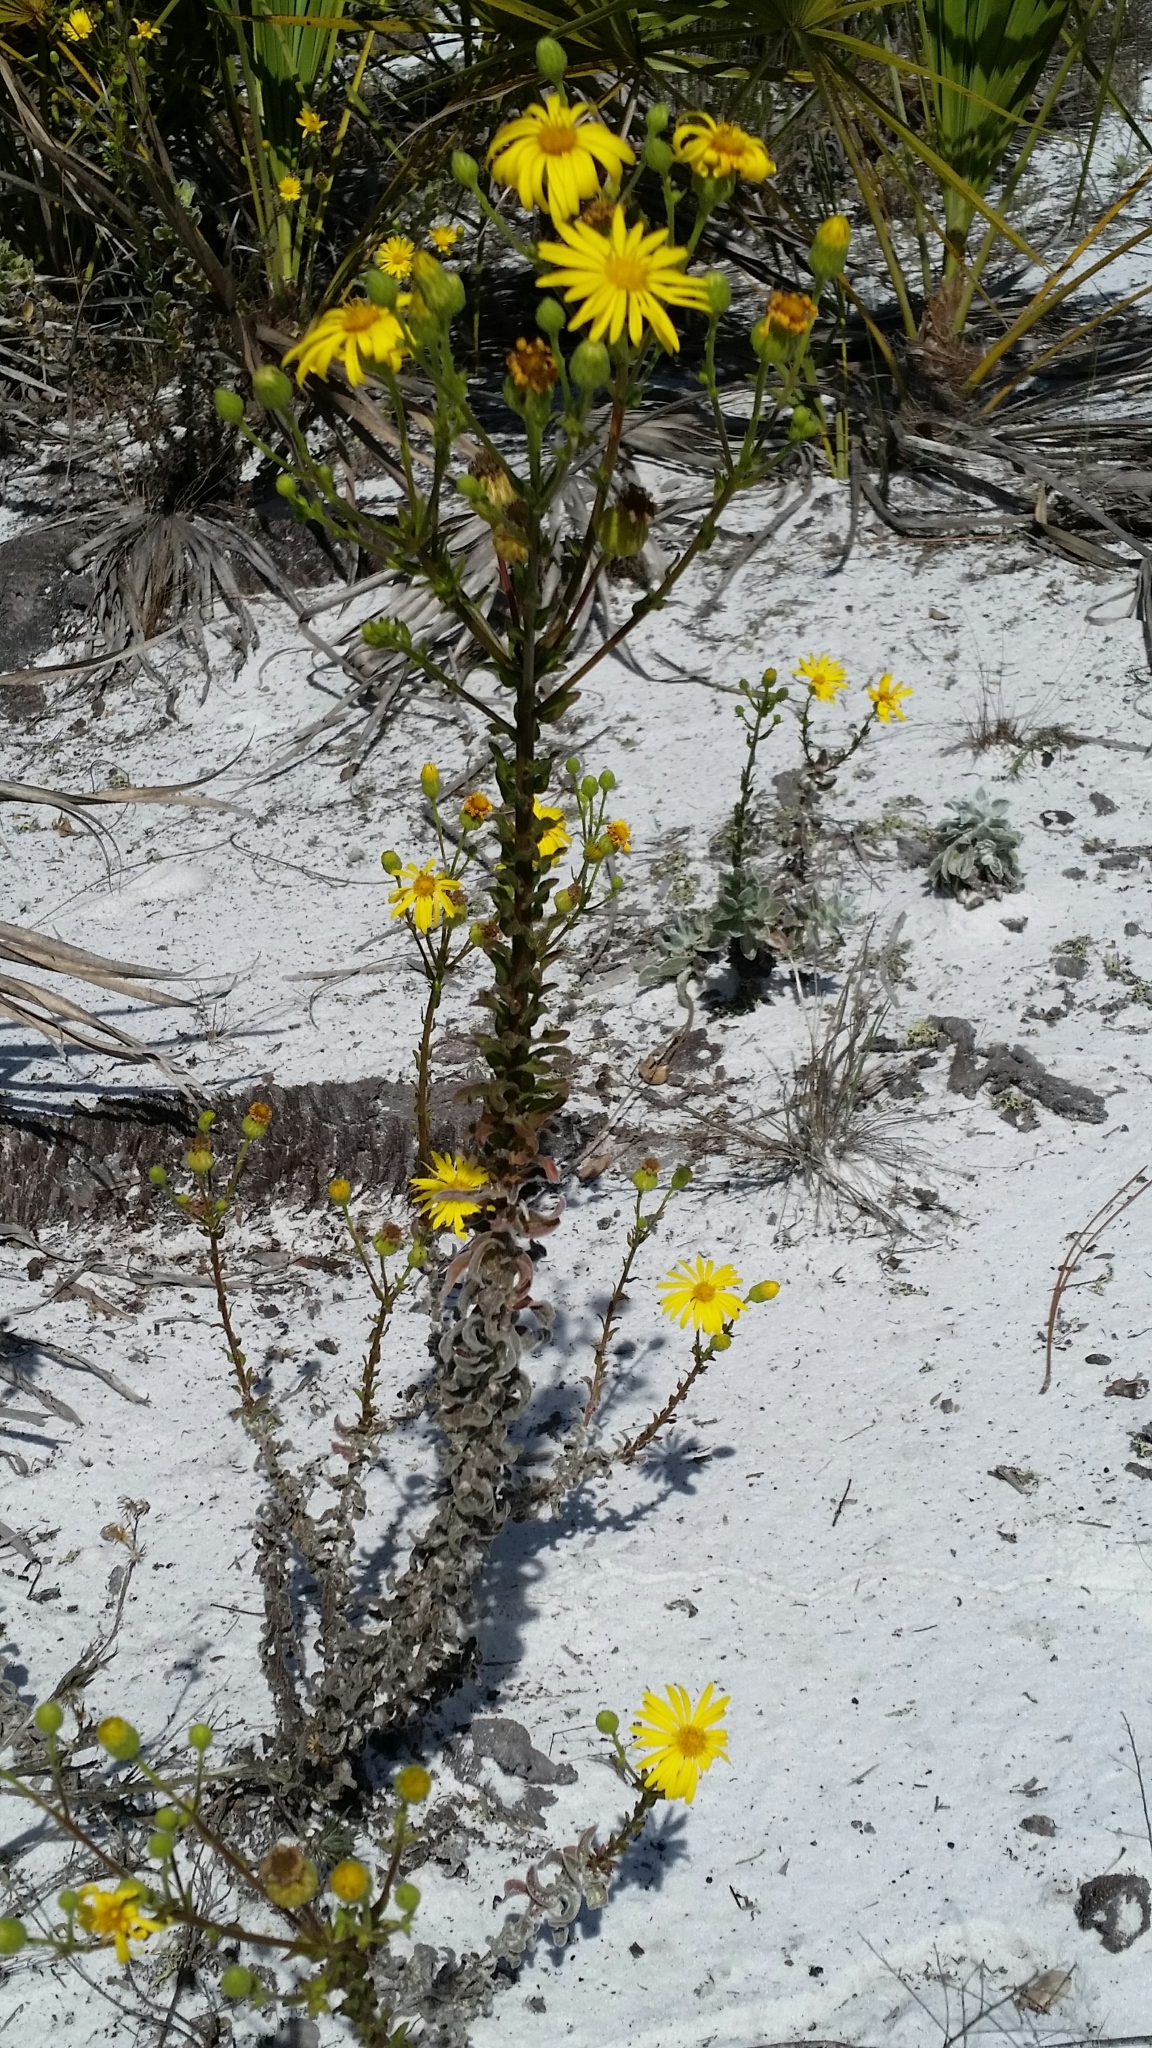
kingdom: Plantae
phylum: Tracheophyta
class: Magnoliopsida
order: Asterales
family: Asteraceae
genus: Chrysopsis
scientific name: Chrysopsis scabrella
